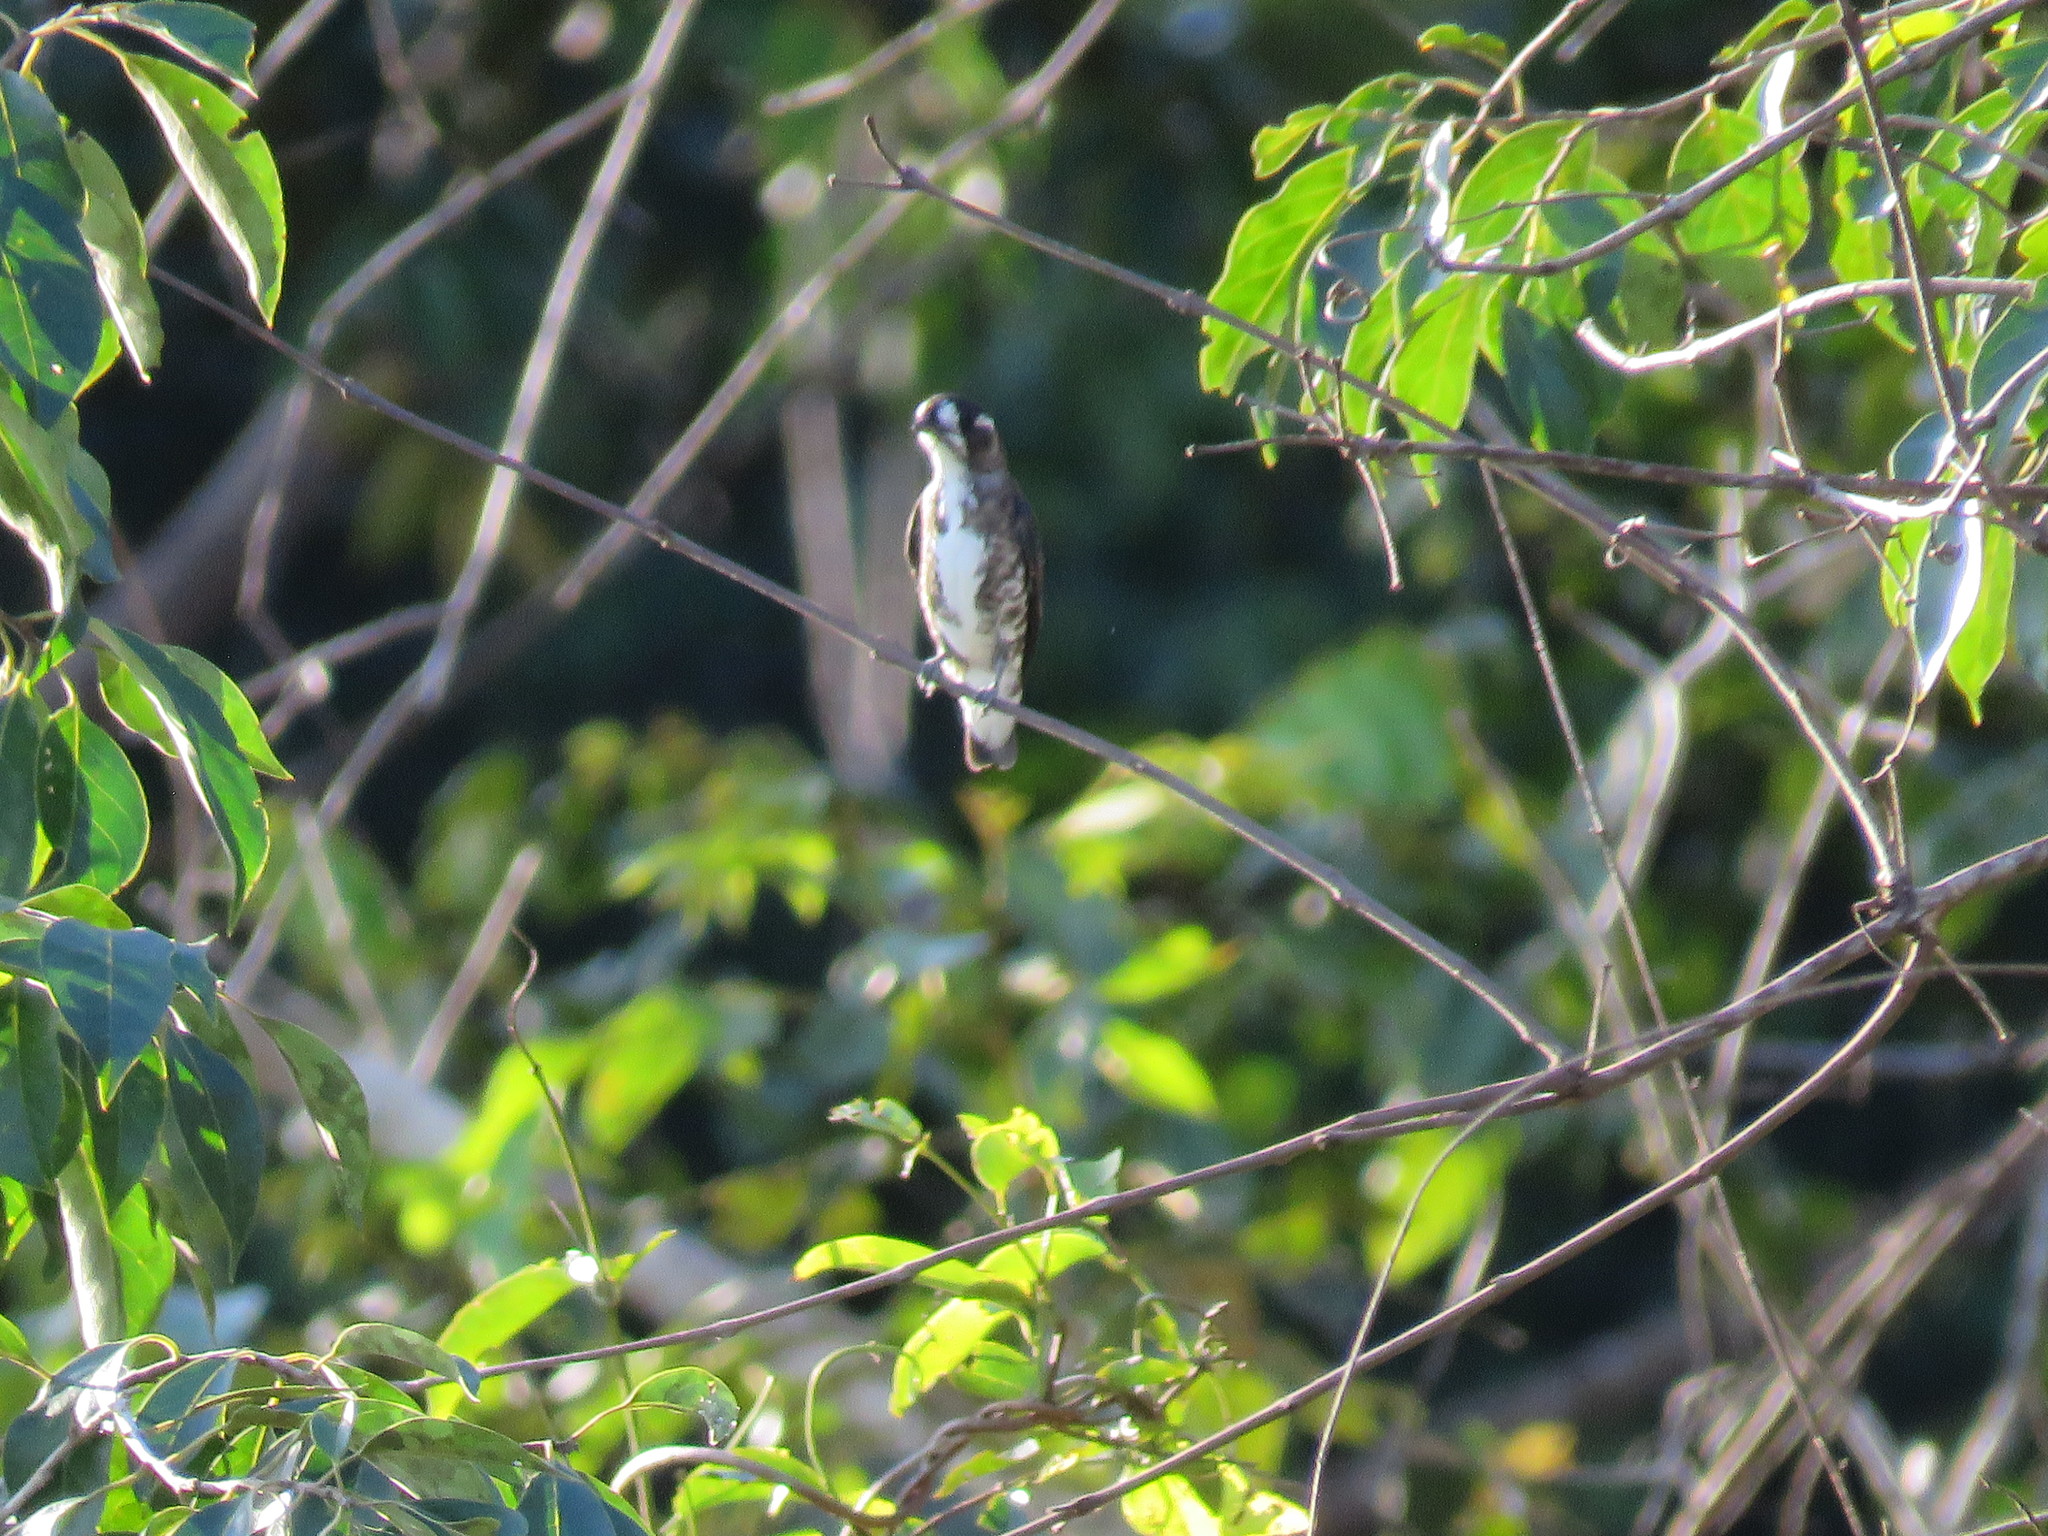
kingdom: Animalia
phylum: Chordata
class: Aves
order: Passeriformes
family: Cotingidae
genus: Iodopleura
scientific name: Iodopleura isabellae
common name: White-browed purpletuft
